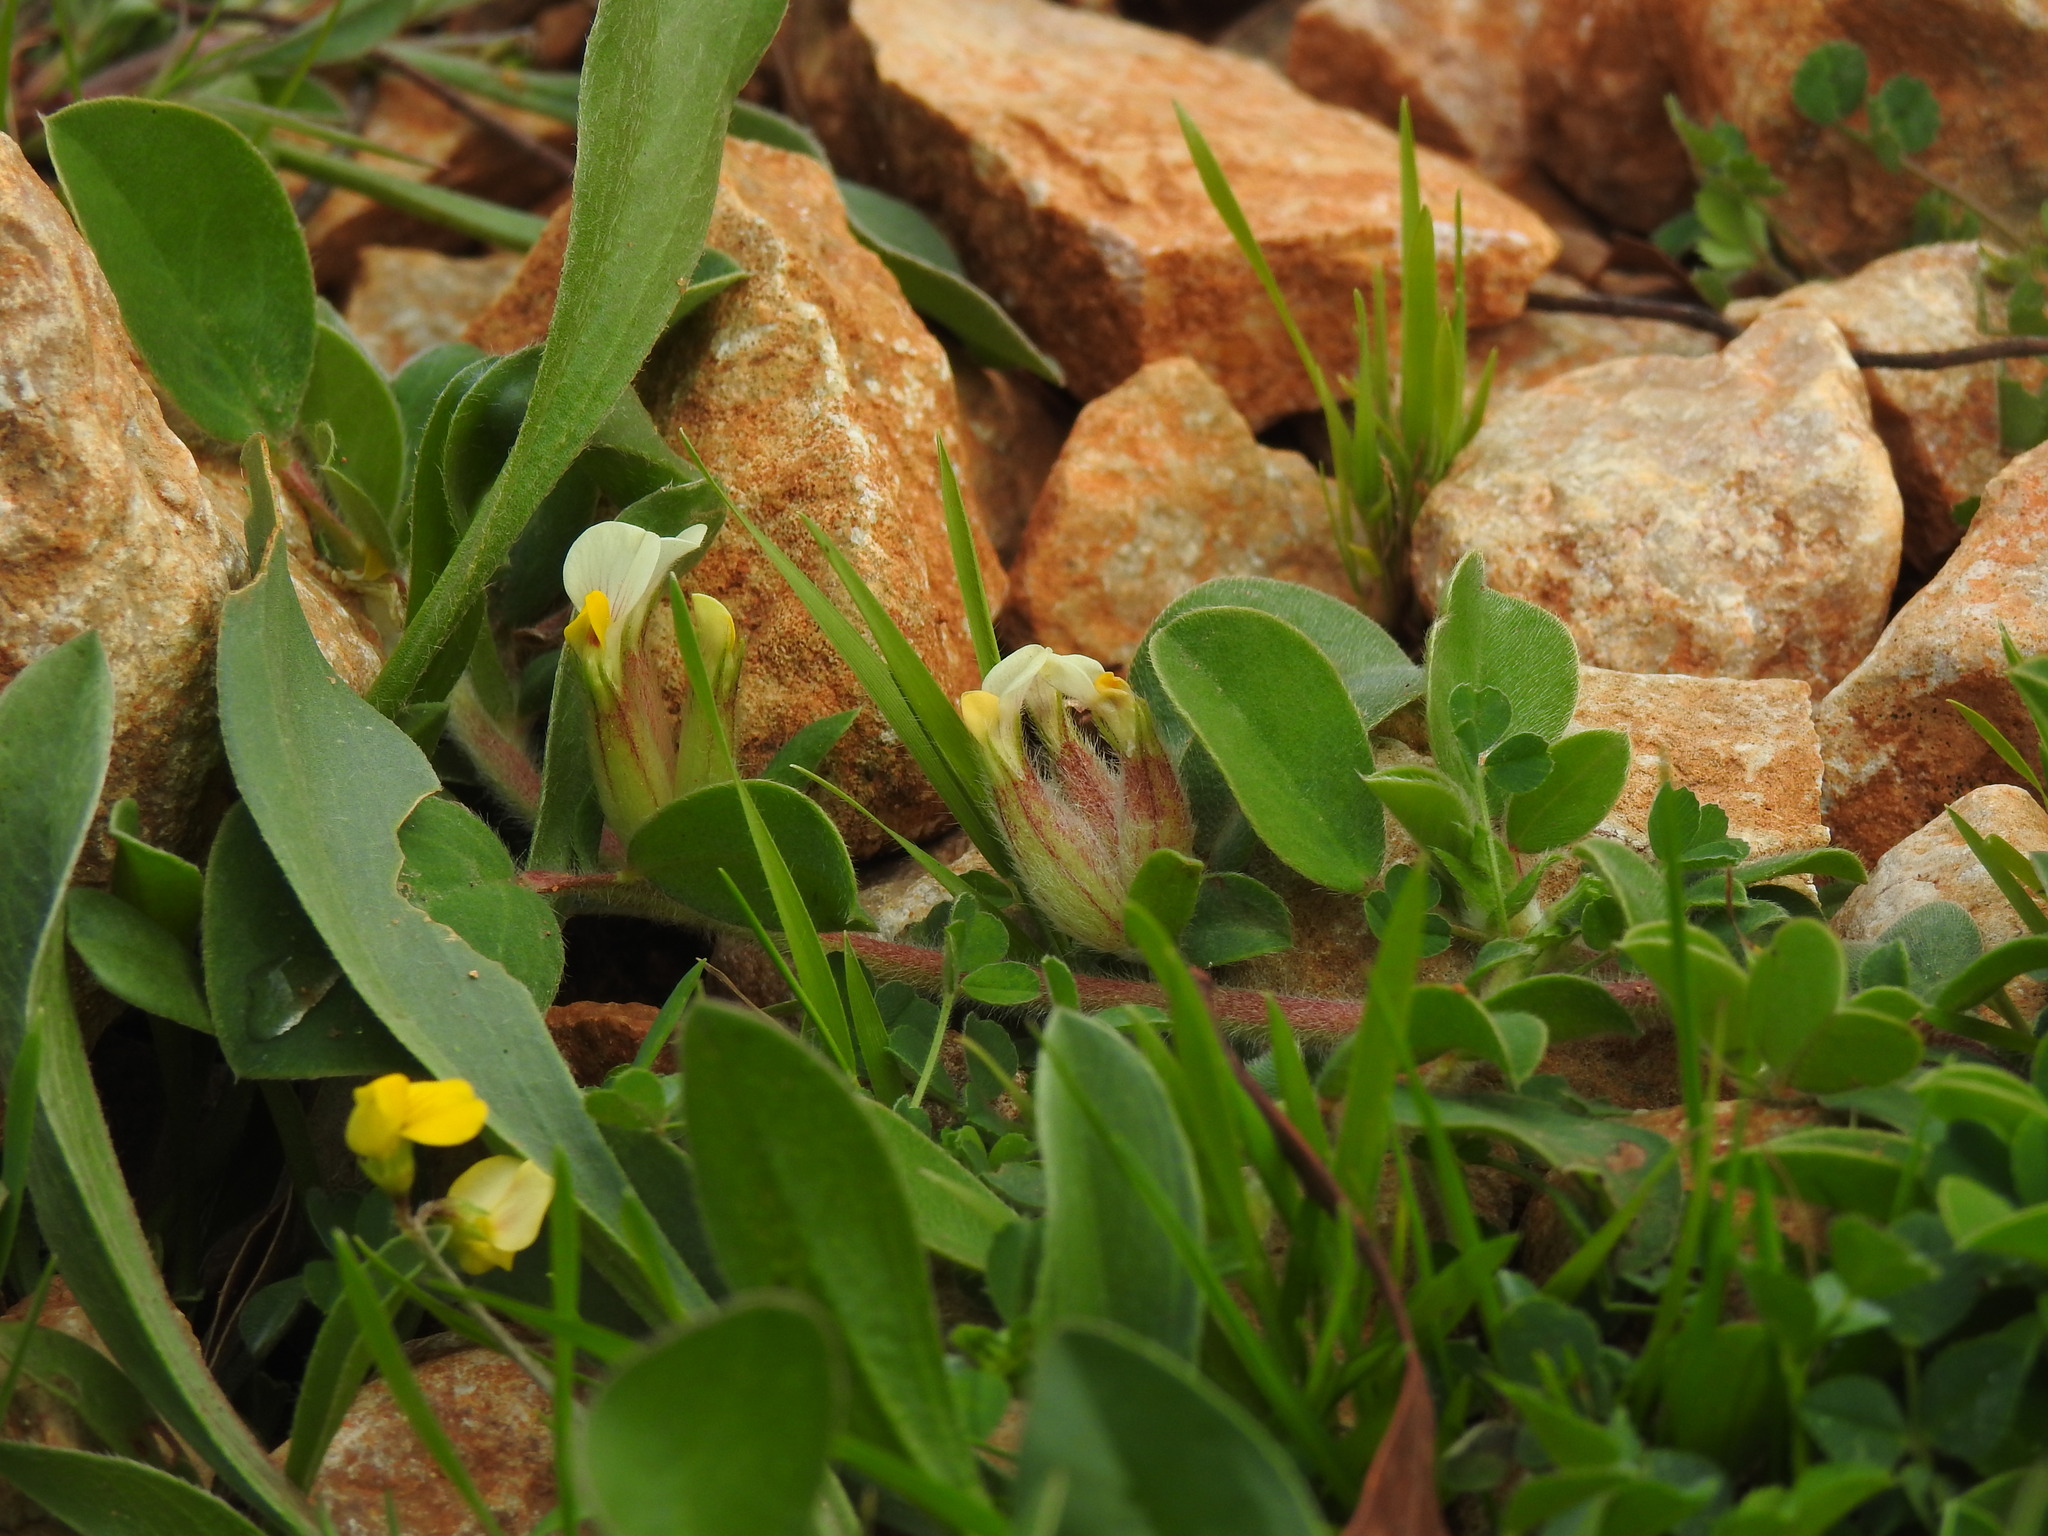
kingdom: Plantae
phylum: Tracheophyta
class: Magnoliopsida
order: Fabales
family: Fabaceae
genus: Tripodion
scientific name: Tripodion tetraphyllum
